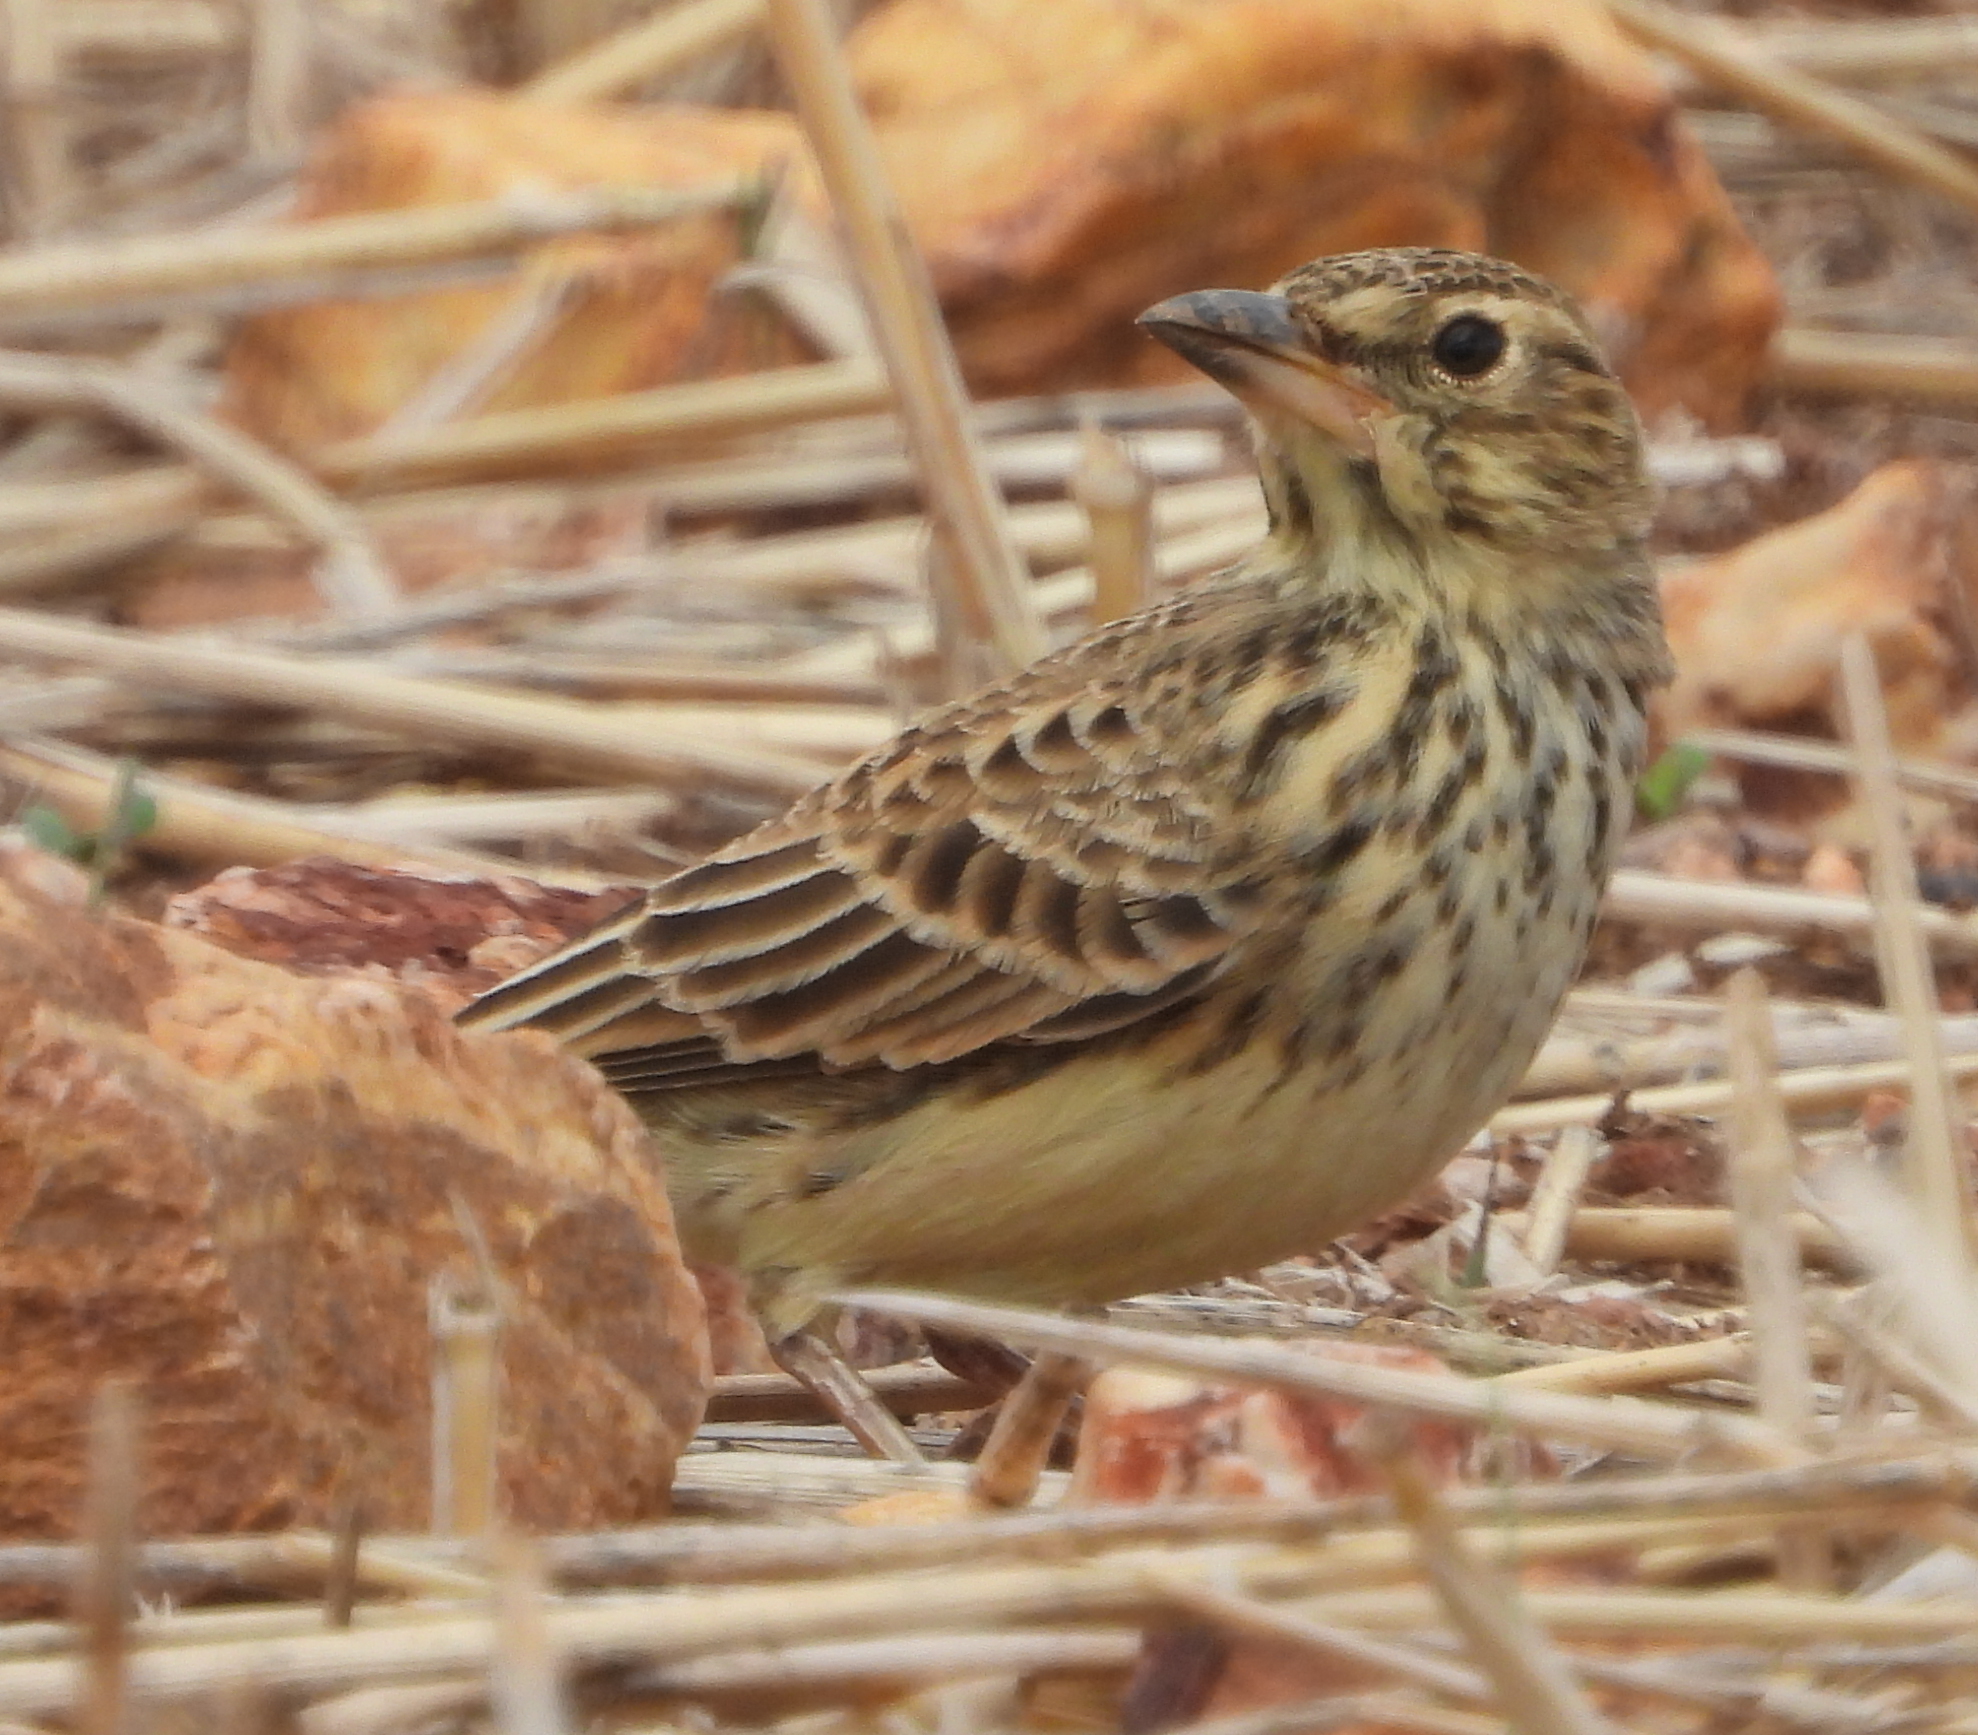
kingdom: Animalia
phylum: Chordata
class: Aves
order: Passeriformes
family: Alaudidae
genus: Galerida
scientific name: Galerida magnirostris
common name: Large-billed lark
